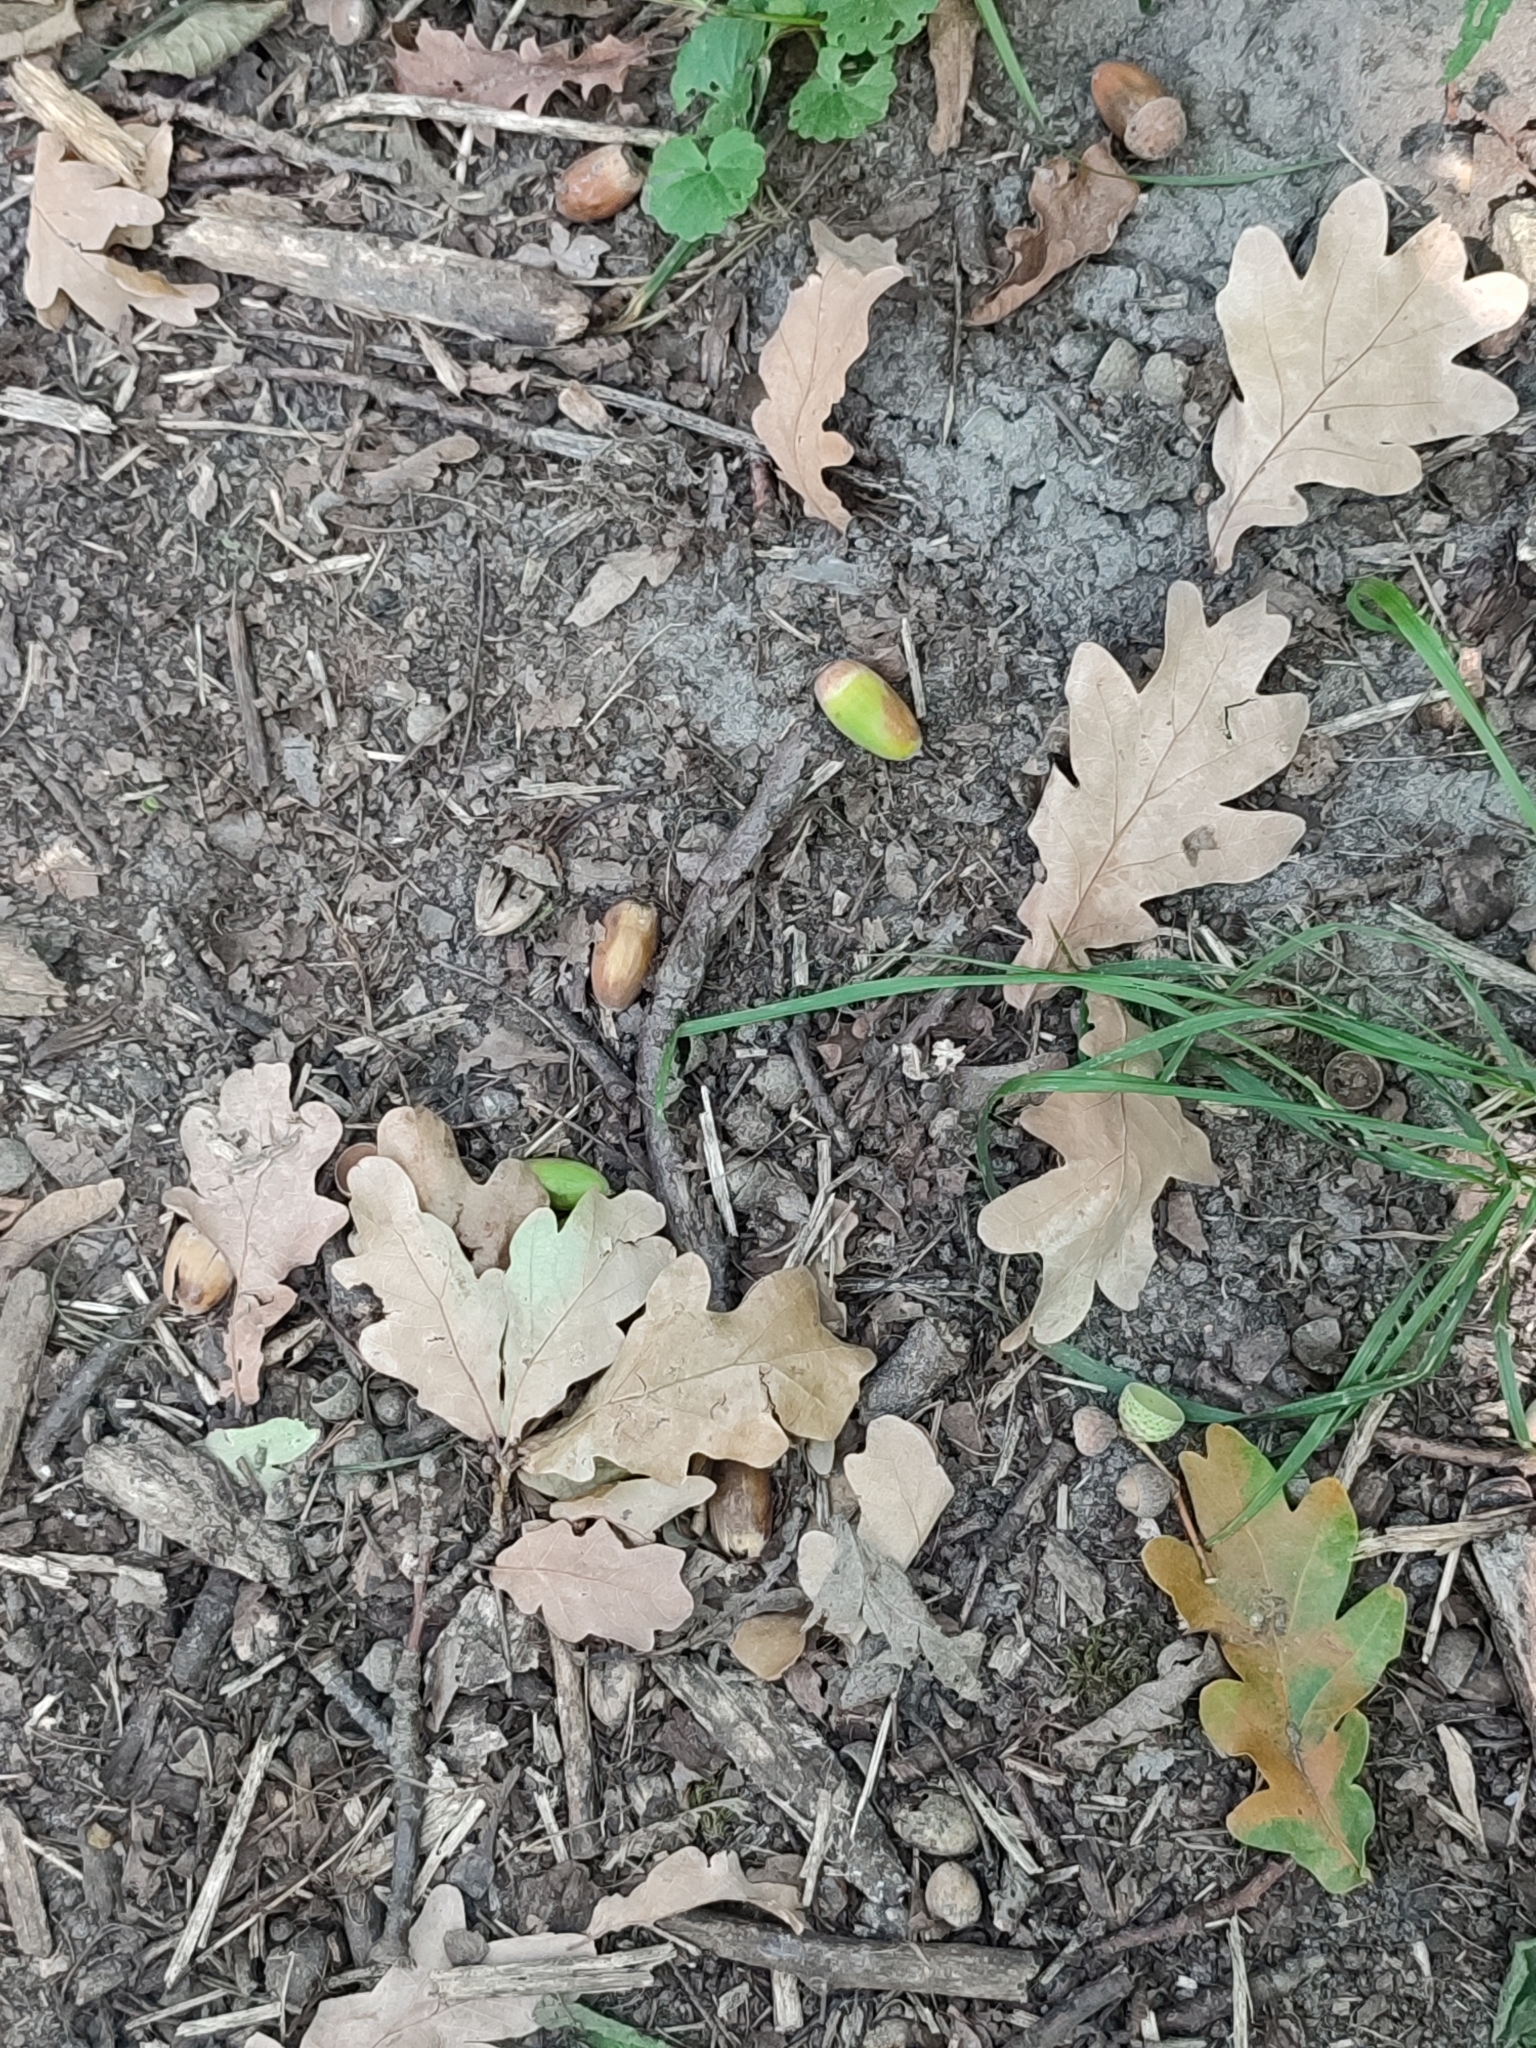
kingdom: Plantae
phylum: Tracheophyta
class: Magnoliopsida
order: Fagales
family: Fagaceae
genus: Quercus
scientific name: Quercus robur
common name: Pedunculate oak
